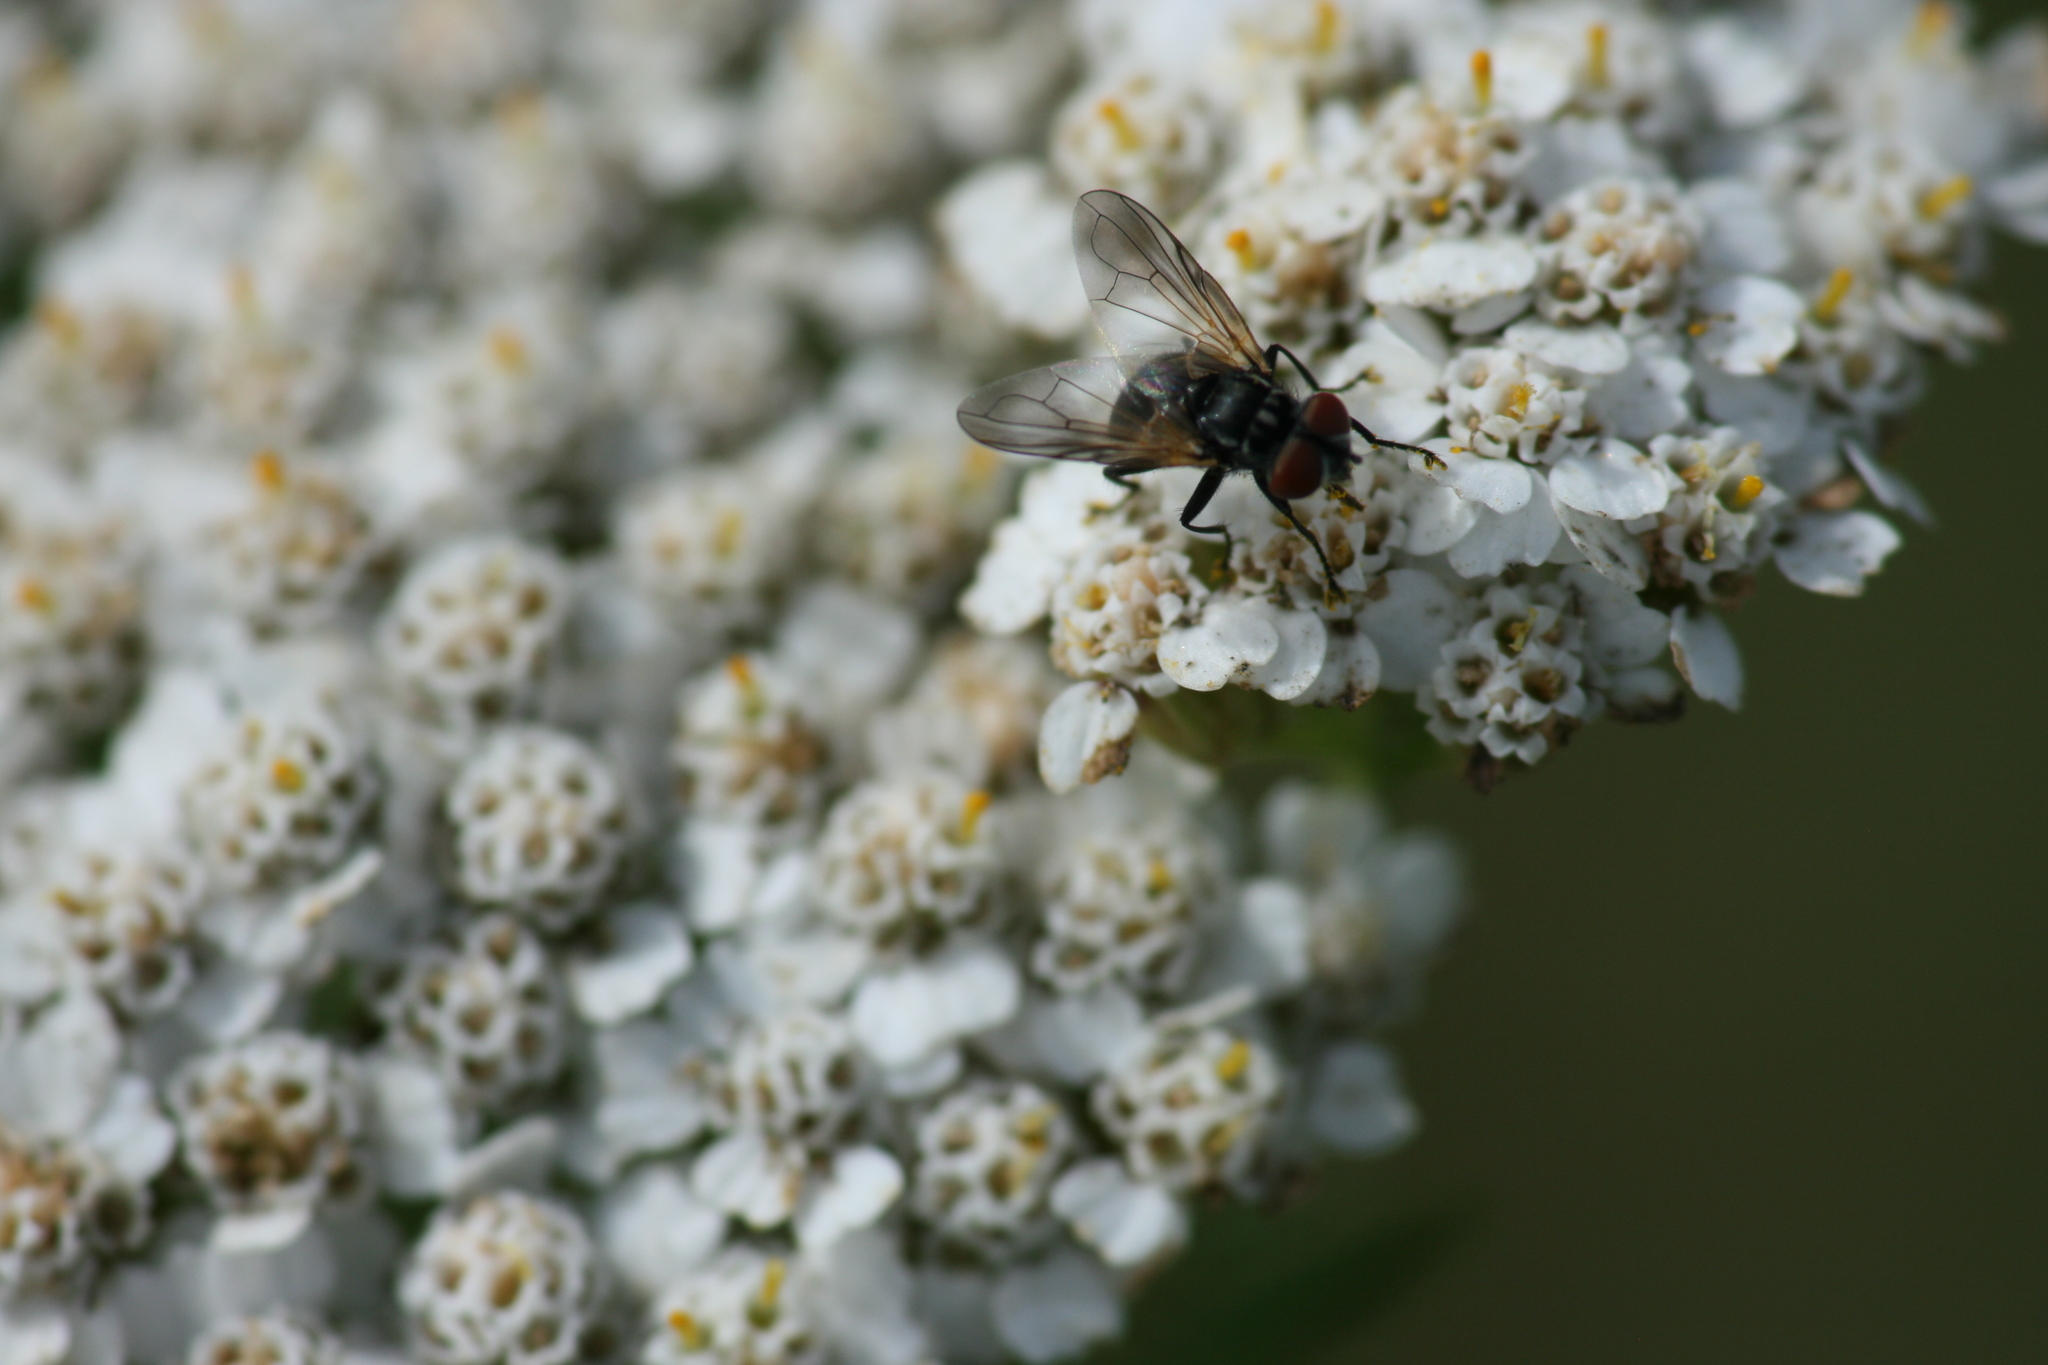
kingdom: Animalia
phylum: Arthropoda
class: Insecta
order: Diptera
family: Tachinidae
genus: Phasia
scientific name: Phasia obesa
